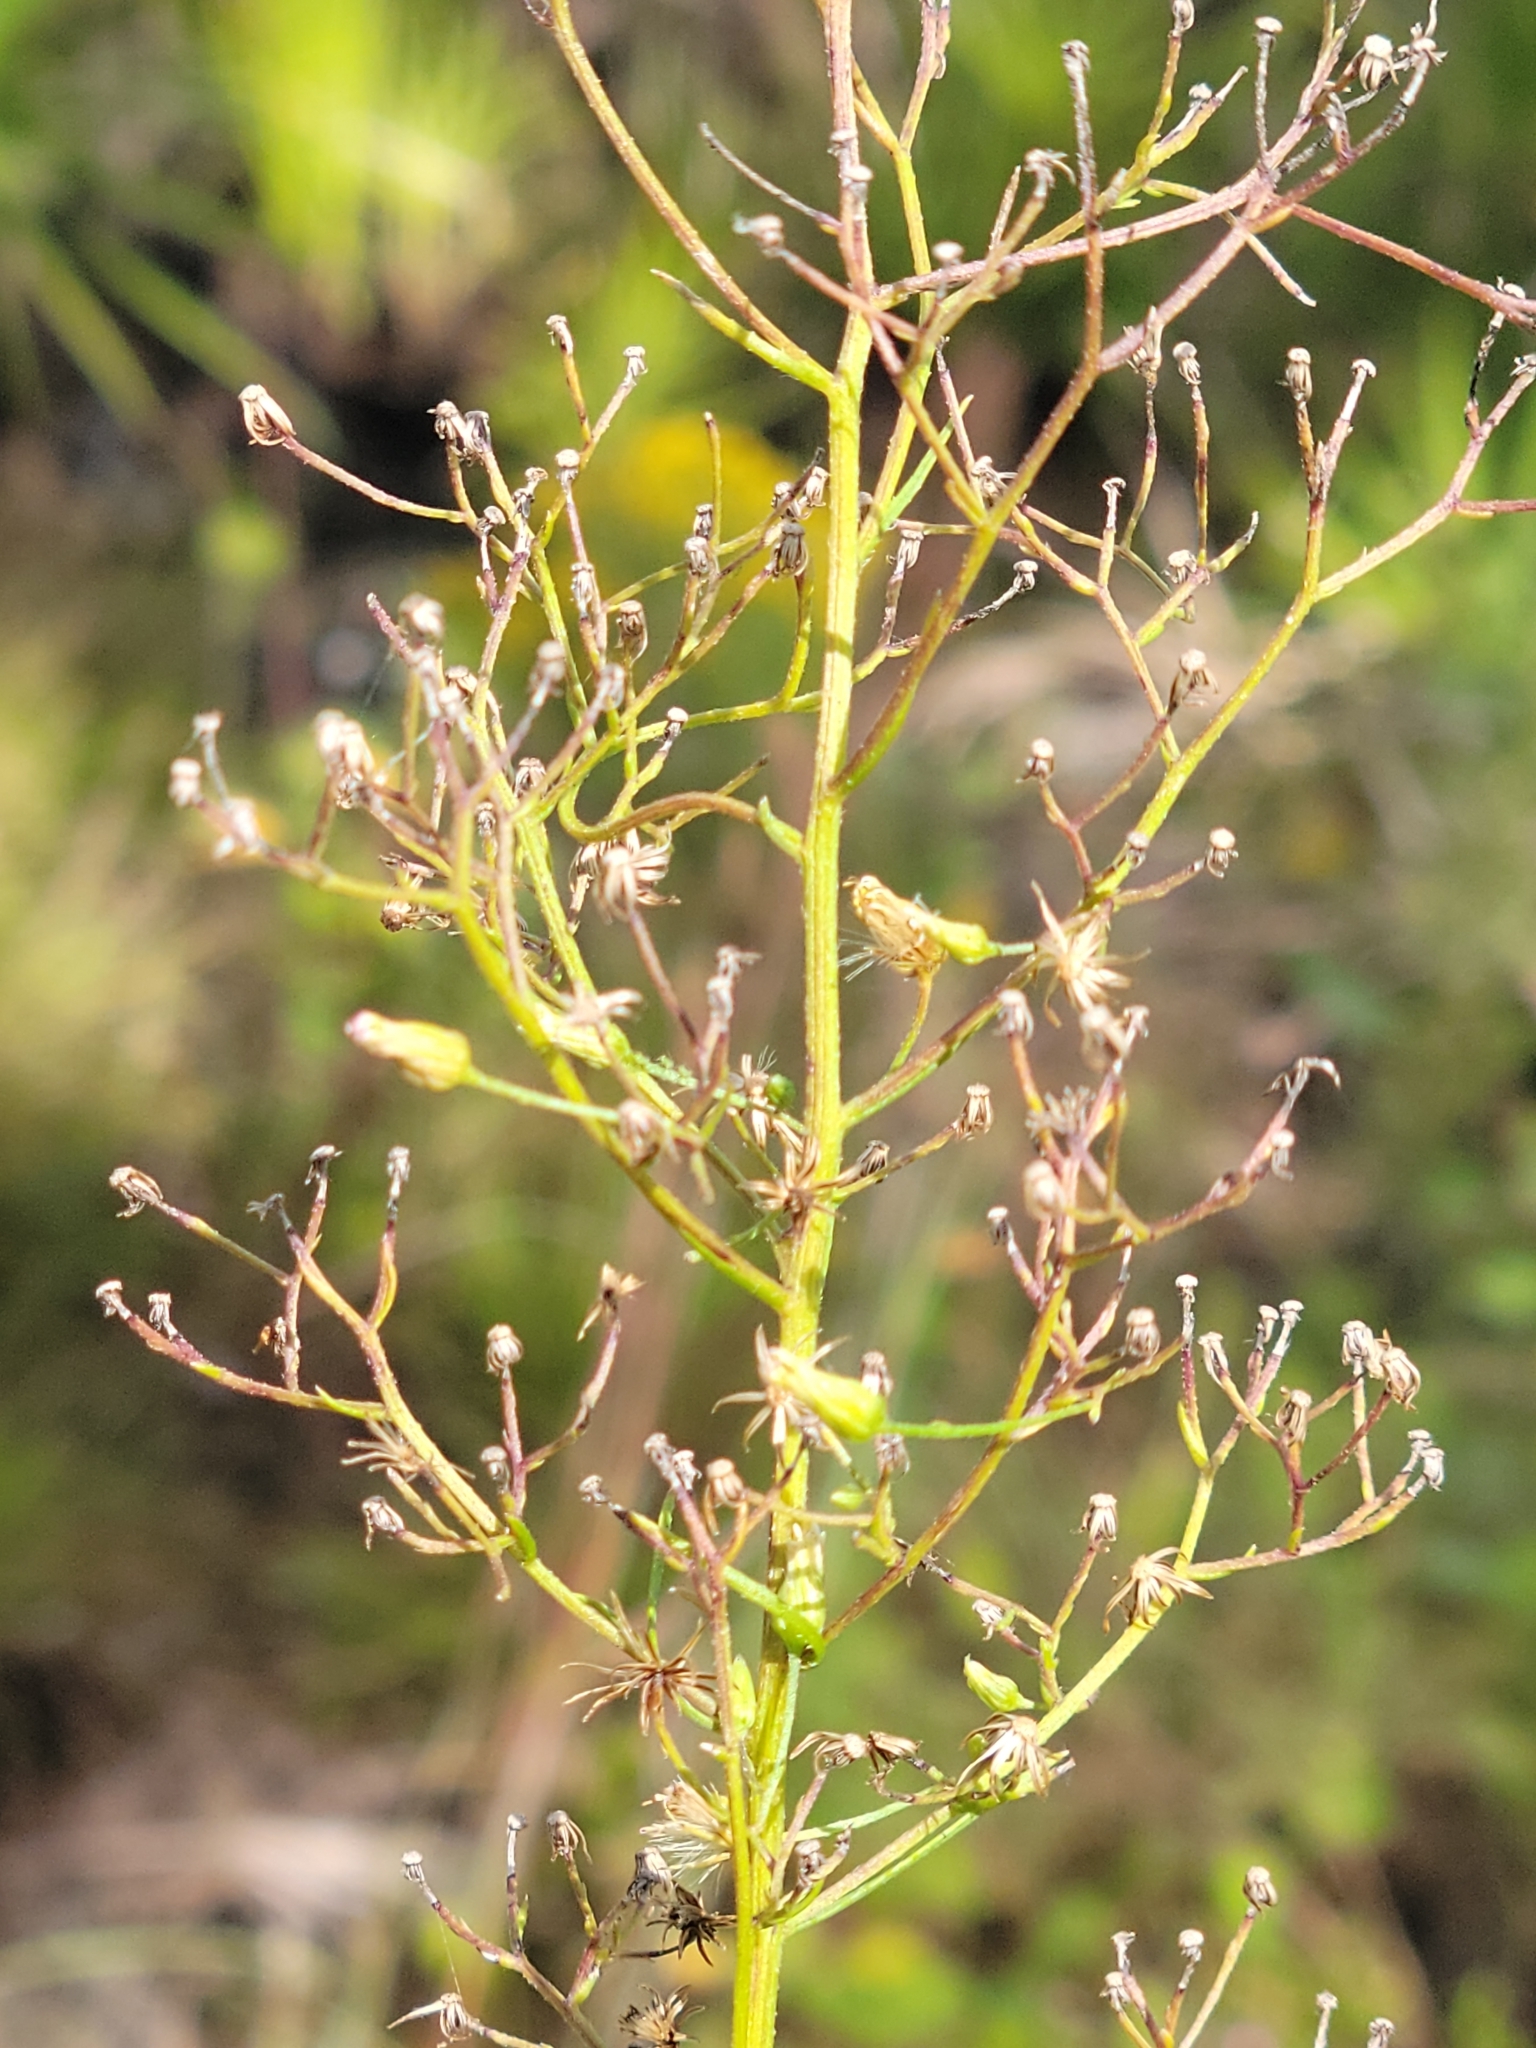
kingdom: Plantae
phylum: Tracheophyta
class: Magnoliopsida
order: Asterales
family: Asteraceae
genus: Erigeron
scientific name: Erigeron canadensis
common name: Canadian fleabane
